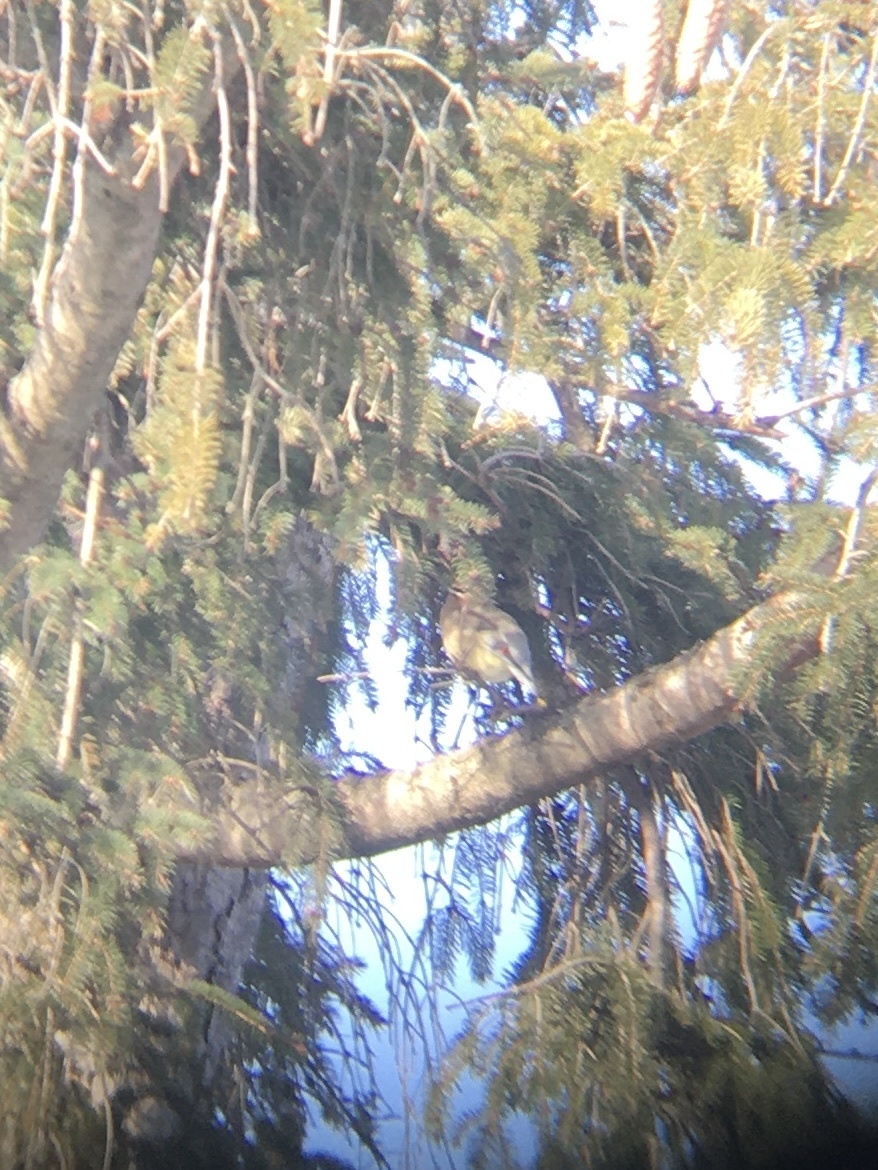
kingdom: Animalia
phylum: Chordata
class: Aves
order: Passeriformes
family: Bombycillidae
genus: Bombycilla
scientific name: Bombycilla cedrorum
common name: Cedar waxwing
